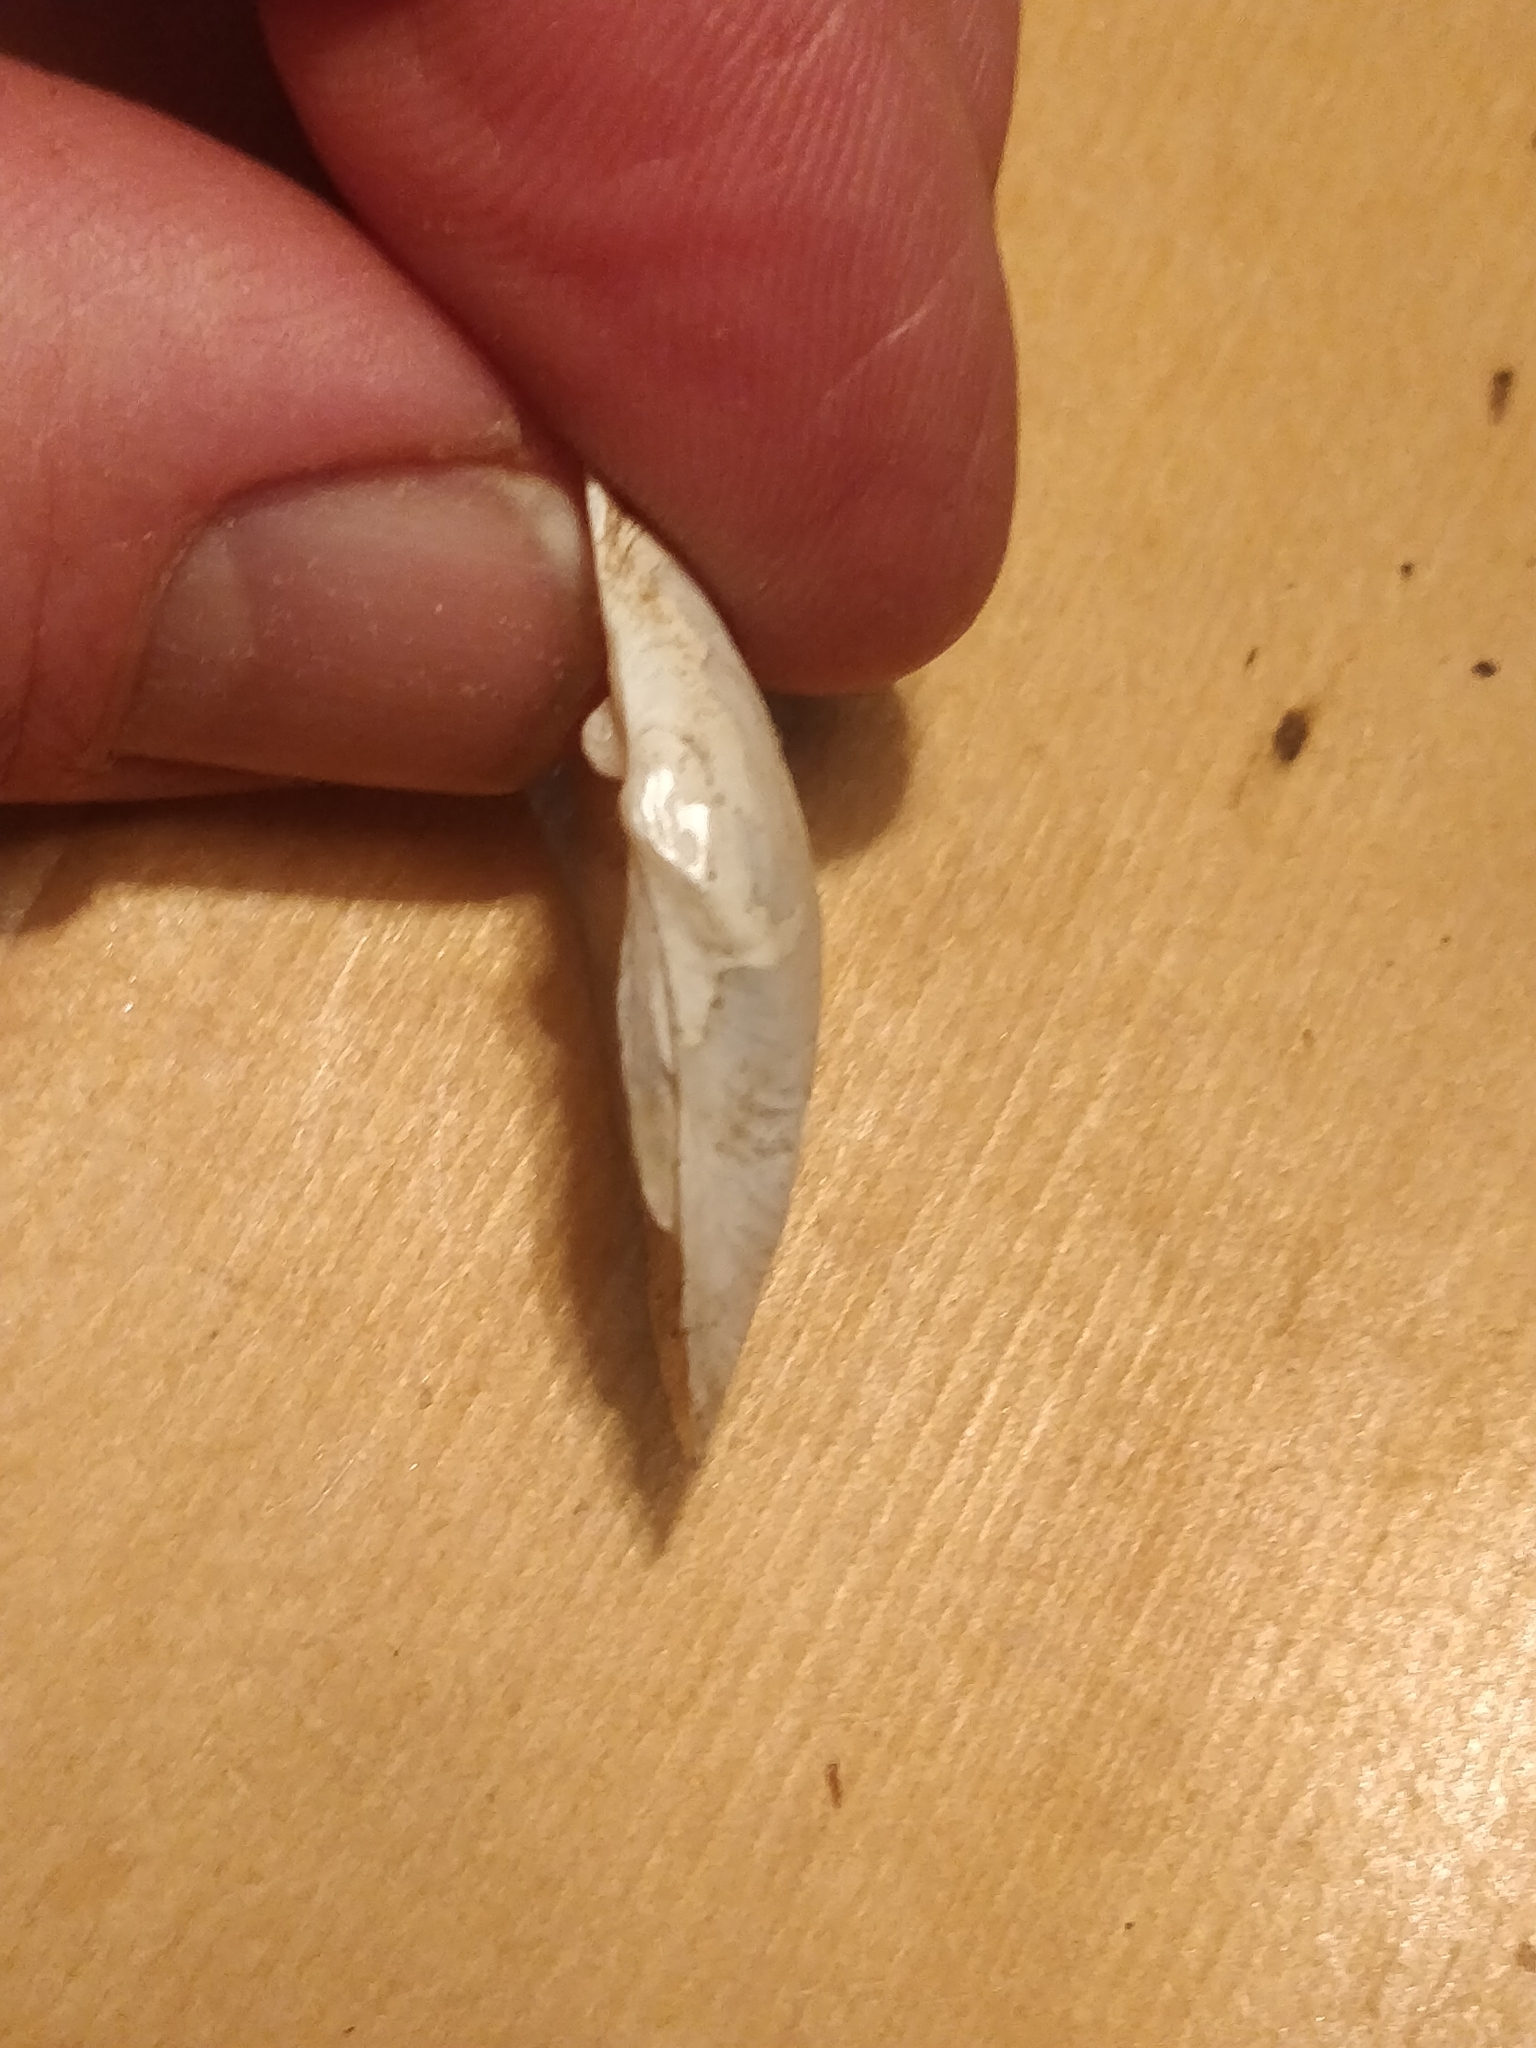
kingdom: Animalia
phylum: Mollusca
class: Bivalvia
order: Unionida
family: Unionidae
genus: Truncilla
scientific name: Truncilla truncata
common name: Deertoe
